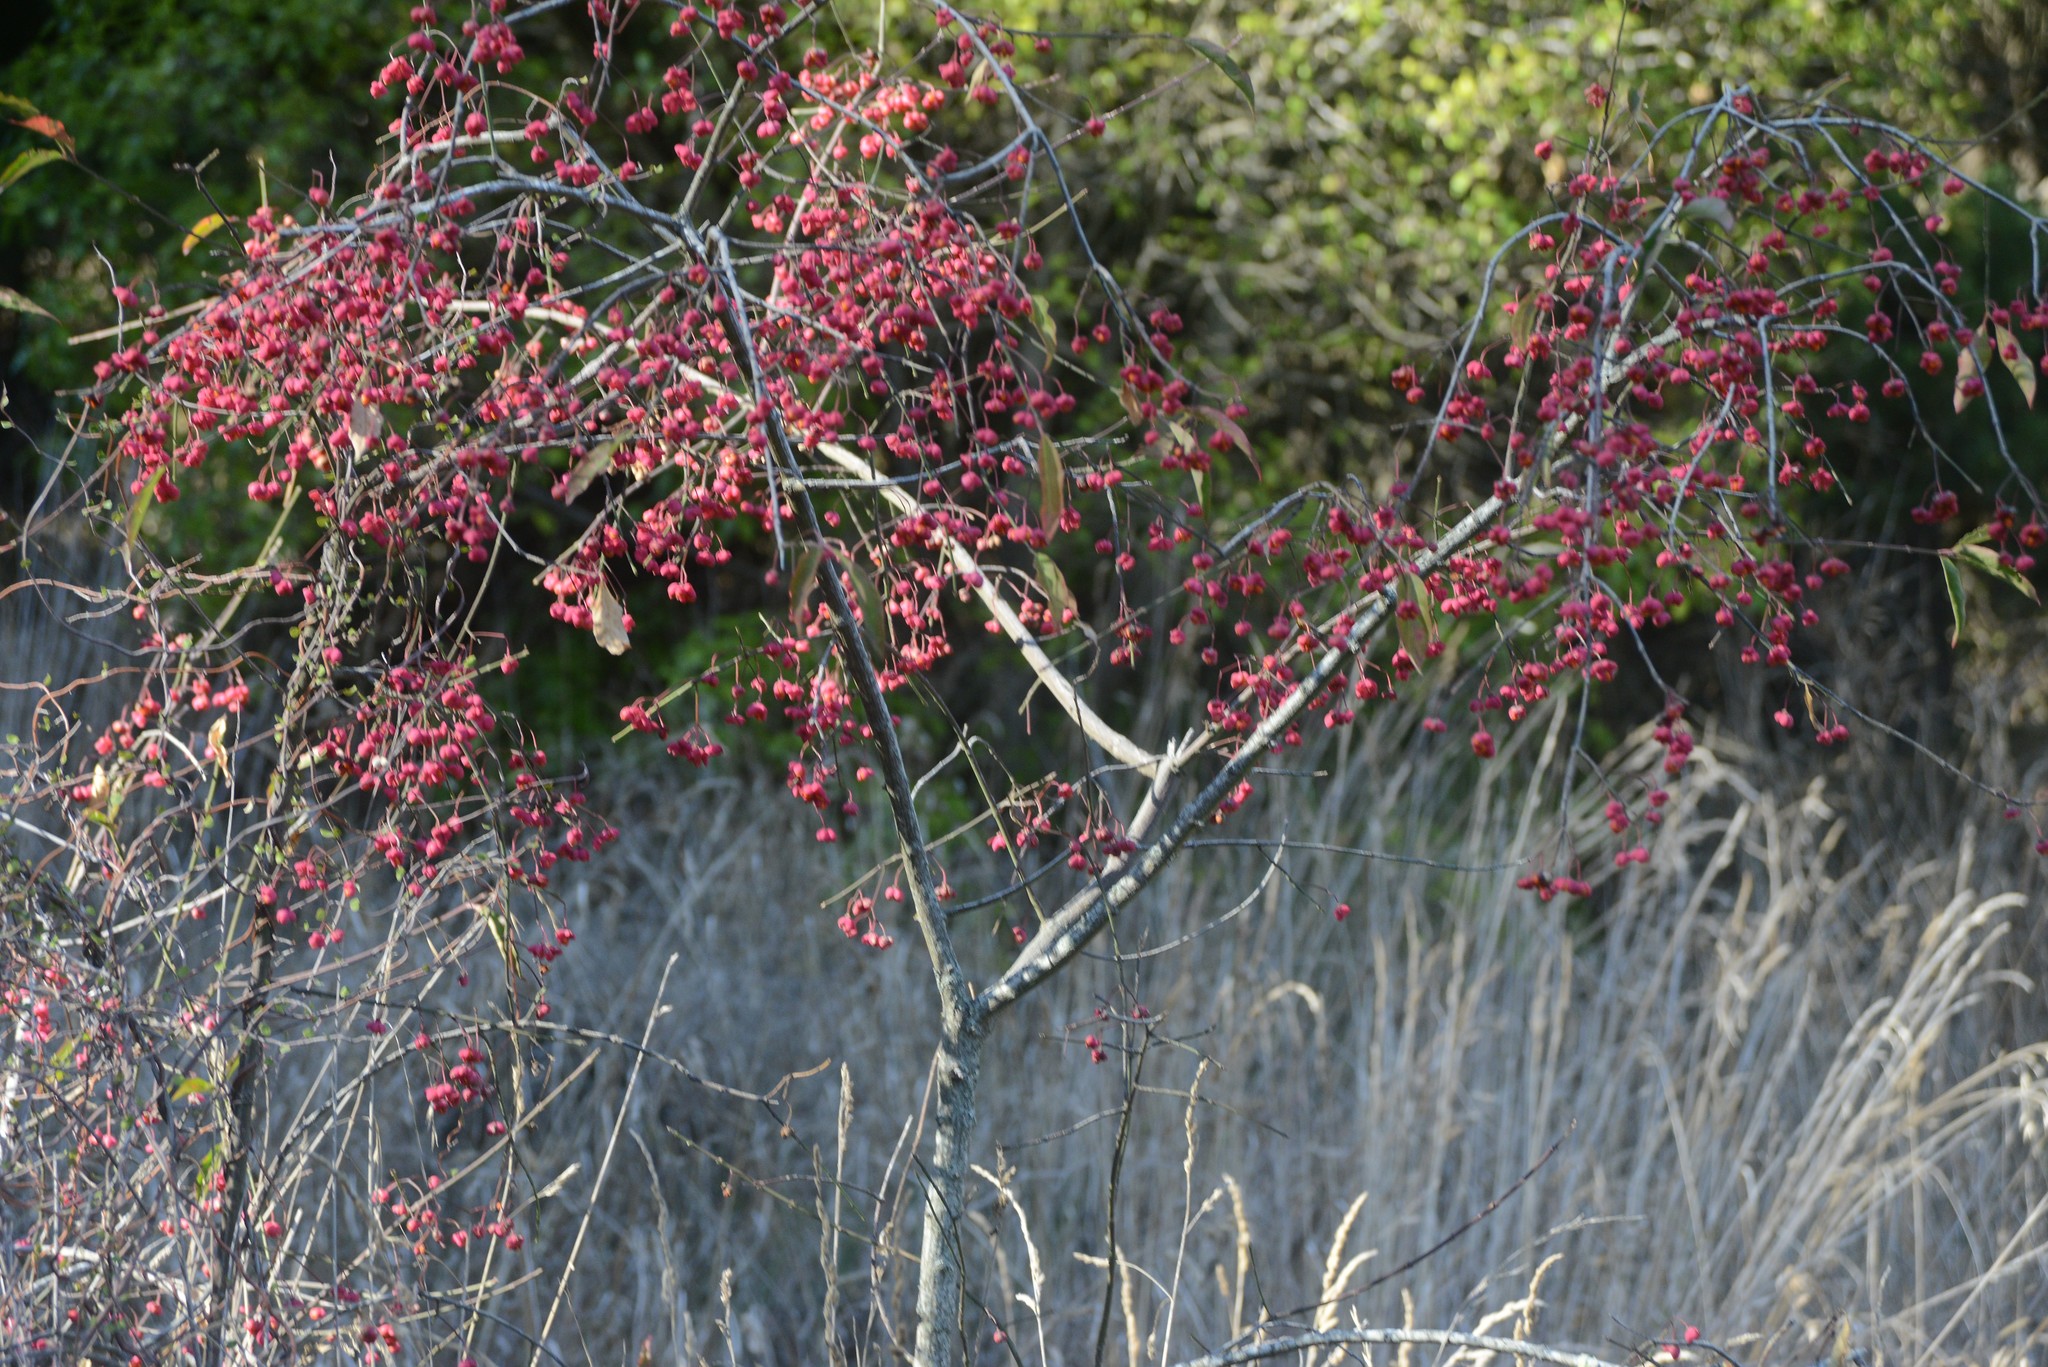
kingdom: Plantae
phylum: Tracheophyta
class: Magnoliopsida
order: Celastrales
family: Celastraceae
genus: Euonymus
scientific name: Euonymus europaeus
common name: Spindle
